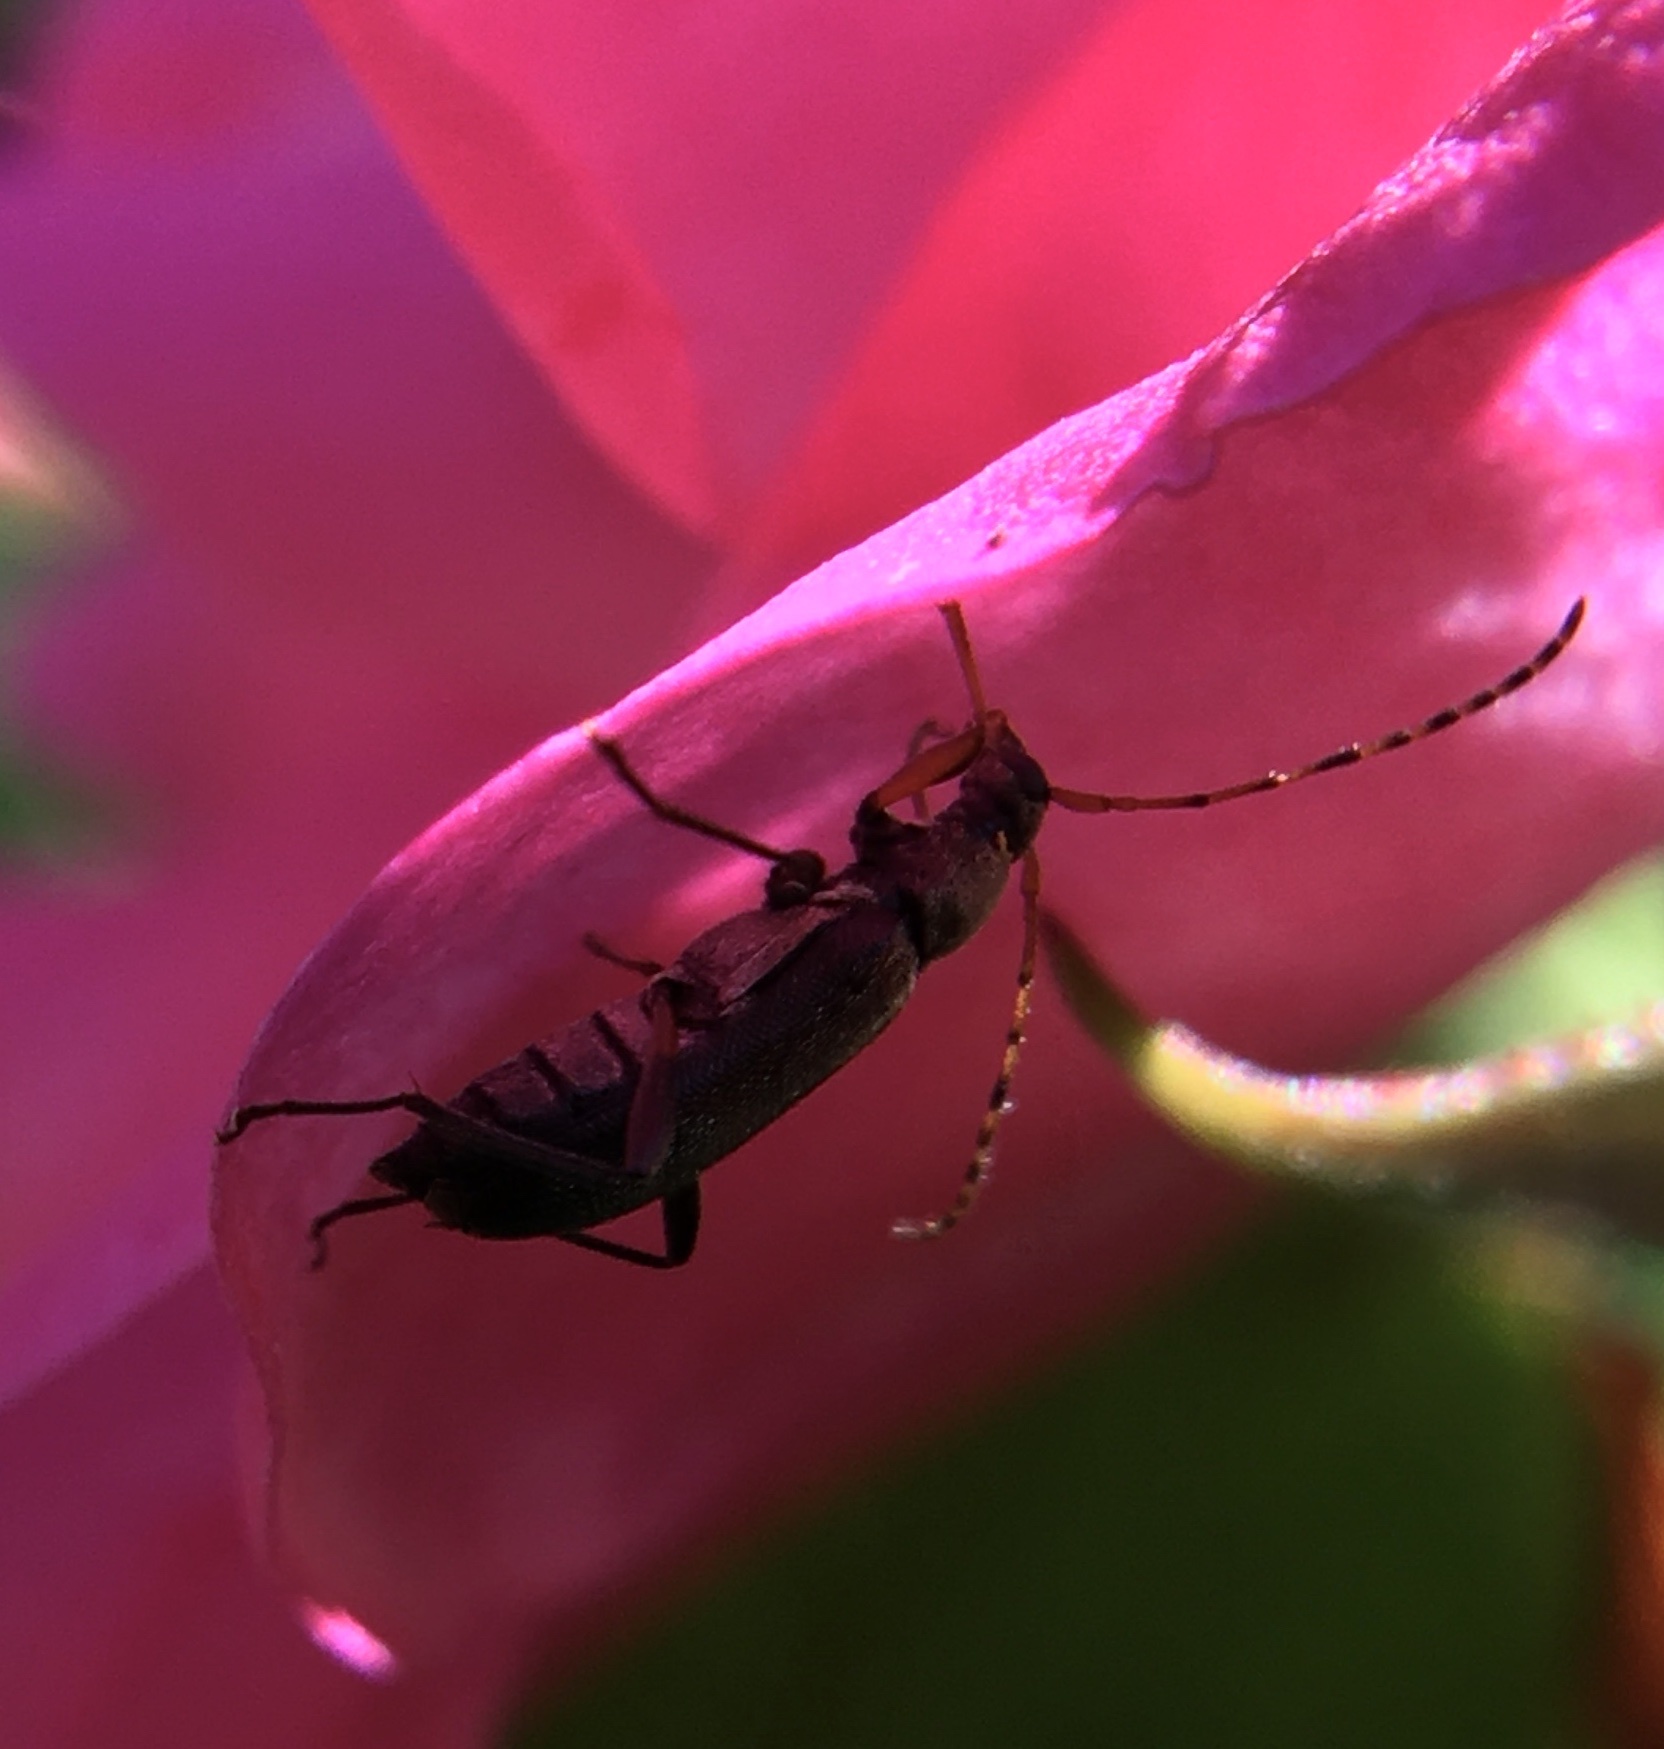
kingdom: Animalia
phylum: Arthropoda
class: Insecta
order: Coleoptera
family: Cerambycidae
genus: Grammoptera
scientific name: Grammoptera ruficornis
